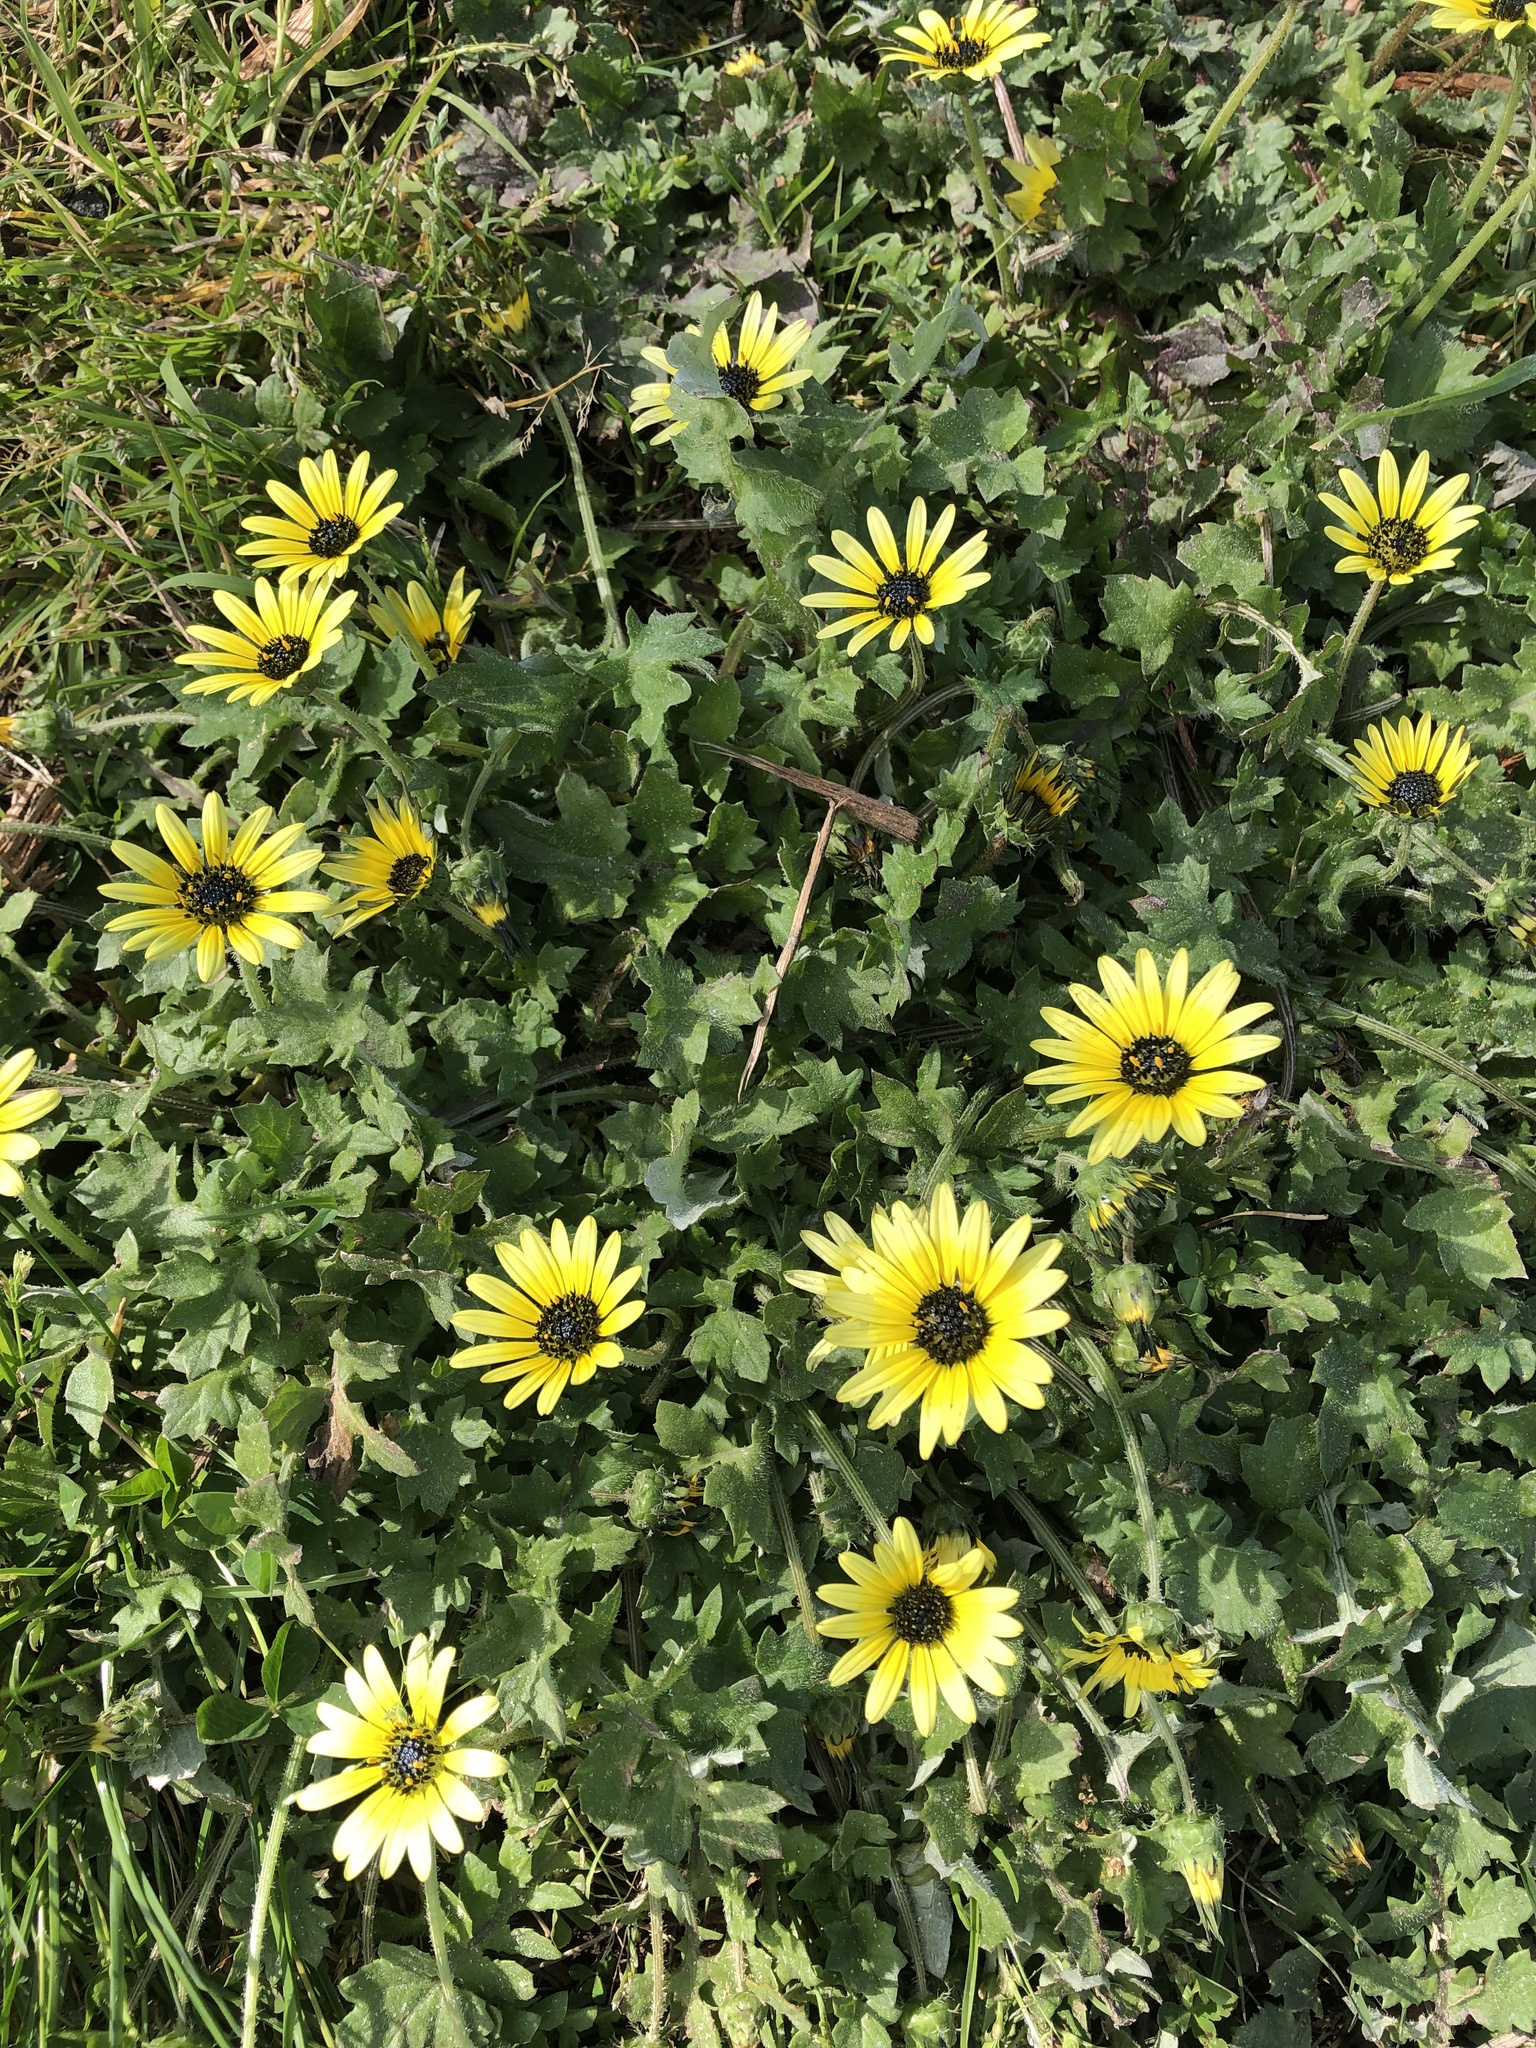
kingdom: Plantae
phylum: Tracheophyta
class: Magnoliopsida
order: Asterales
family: Asteraceae
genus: Arctotheca
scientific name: Arctotheca calendula
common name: Capeweed
